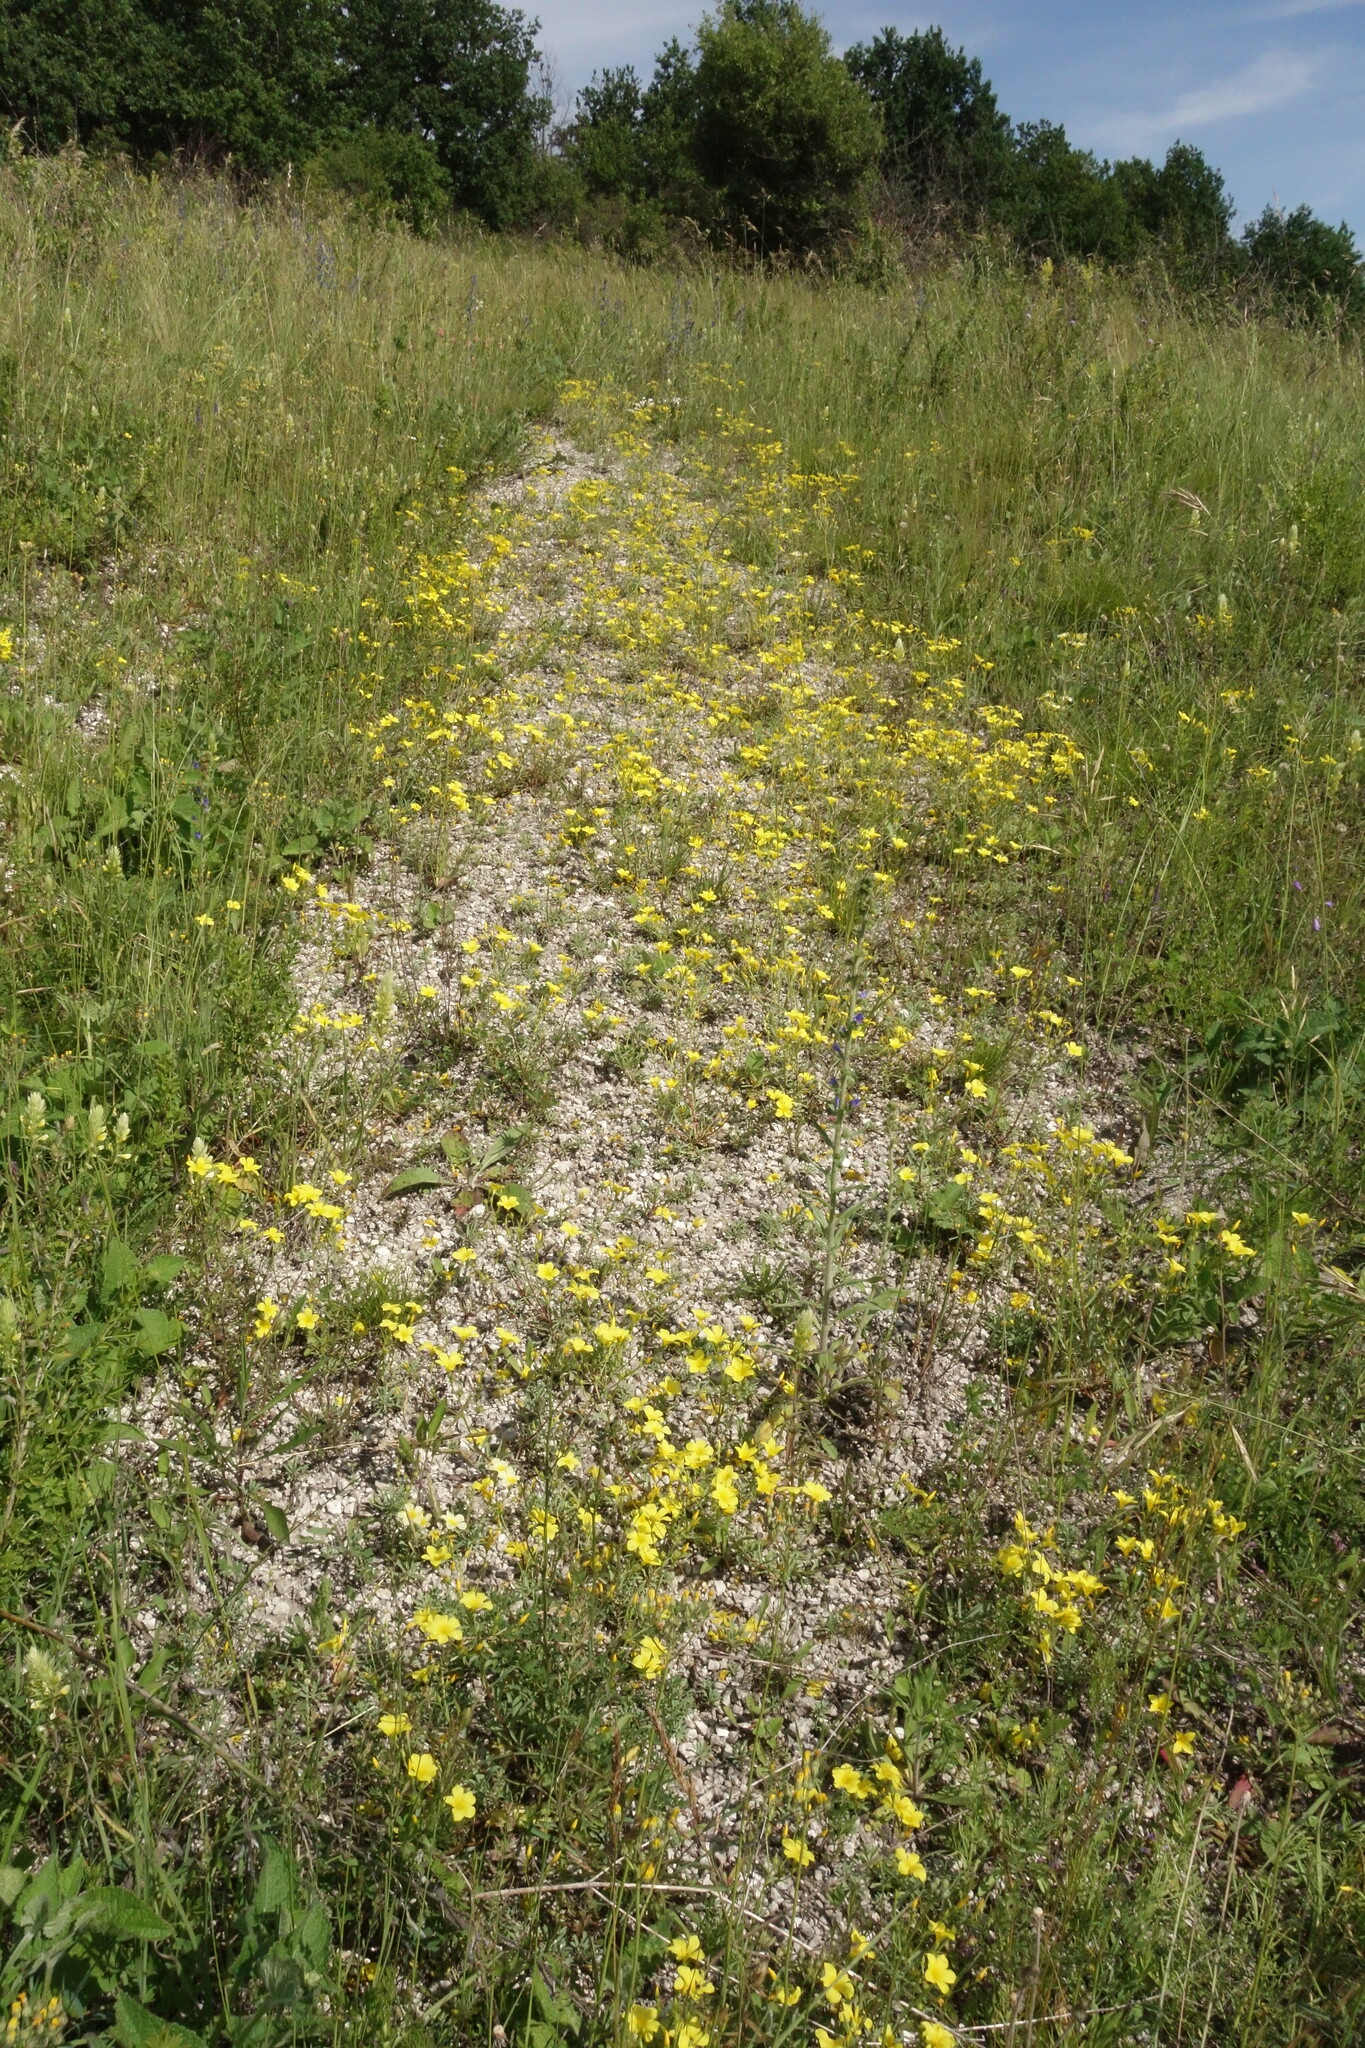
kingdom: Plantae
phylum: Tracheophyta
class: Magnoliopsida
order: Malpighiales
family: Linaceae
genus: Linum
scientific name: Linum ucranicum
